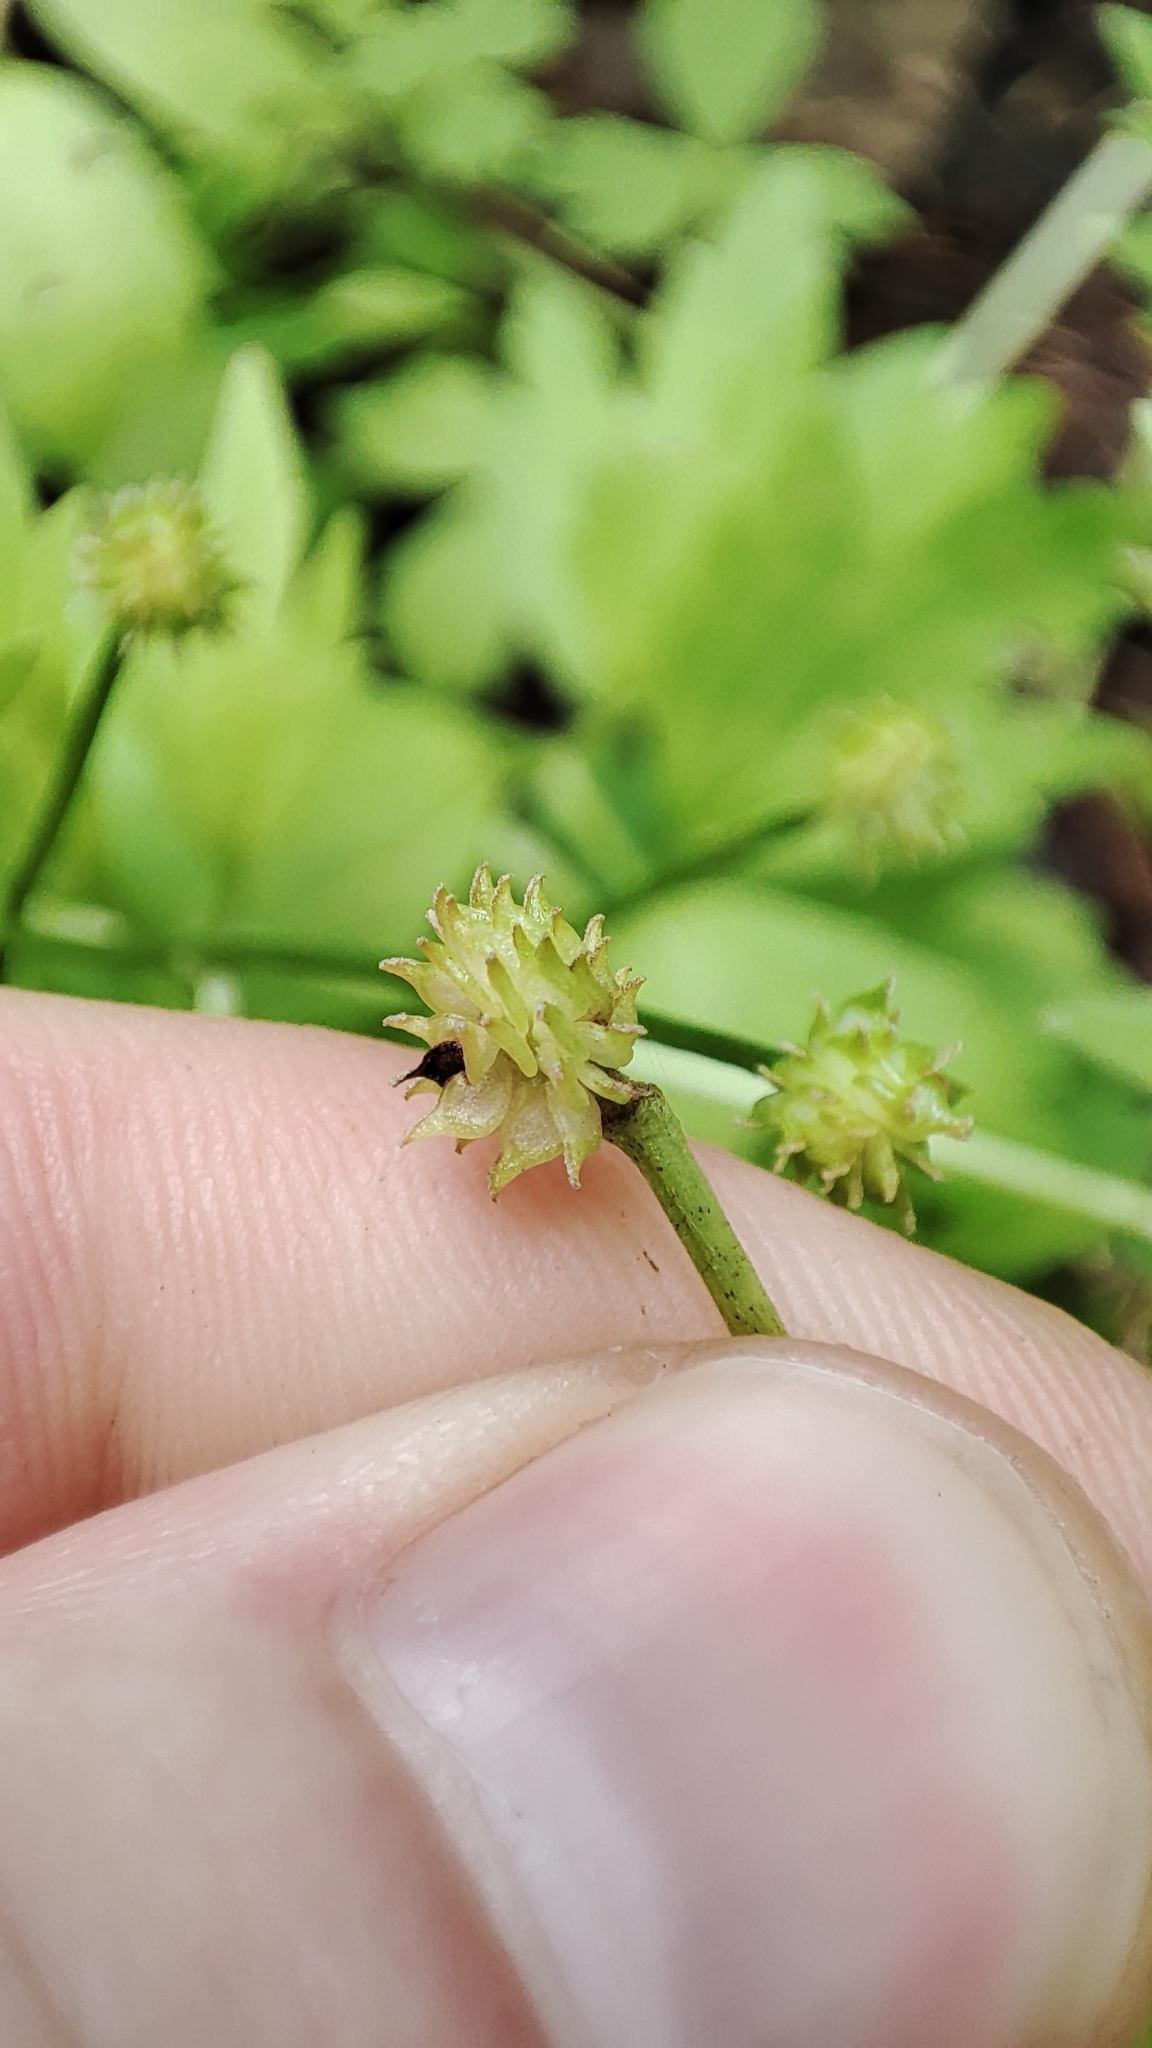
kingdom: Plantae
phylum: Tracheophyta
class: Magnoliopsida
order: Ranunculales
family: Ranunculaceae
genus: Ranunculus
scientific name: Ranunculus repens
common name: Creeping buttercup
